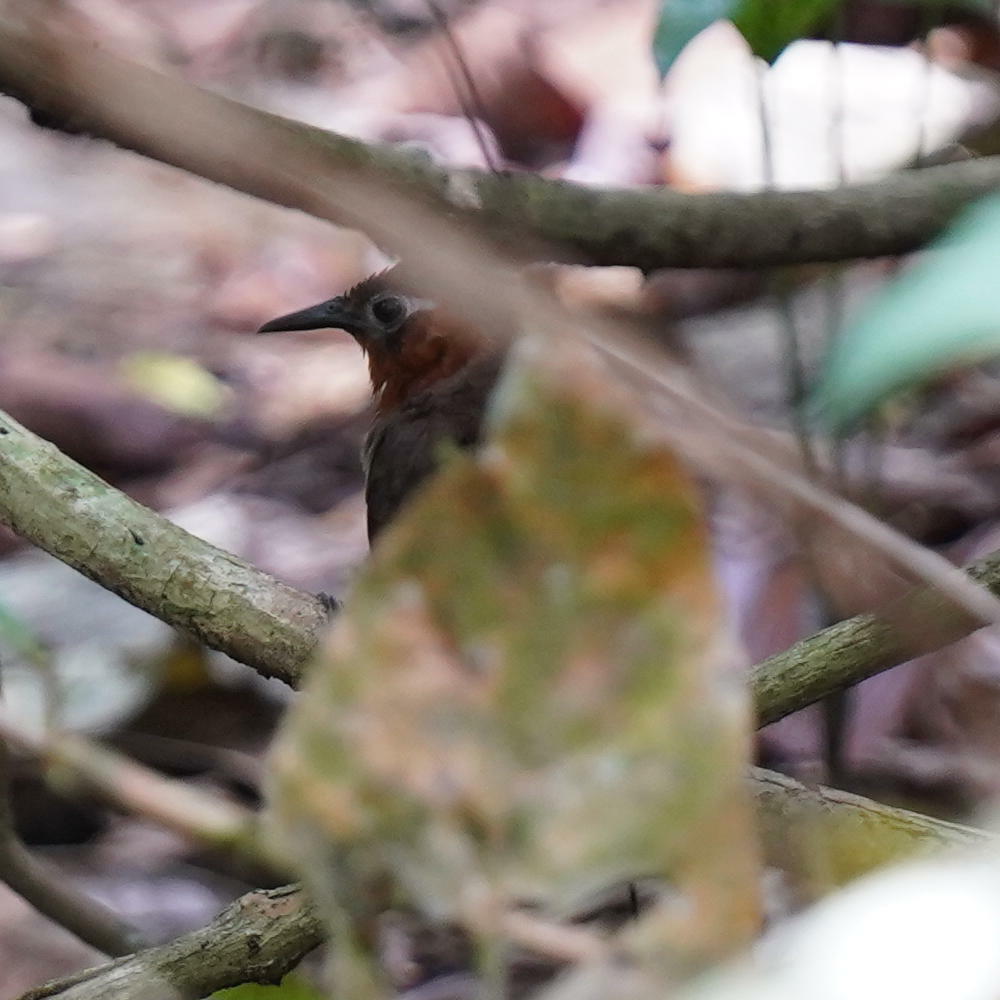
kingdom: Animalia
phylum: Chordata
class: Aves
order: Passeriformes
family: Troglodytidae
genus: Cyphorhinus
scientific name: Cyphorhinus phaeocephalus
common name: Song wren
